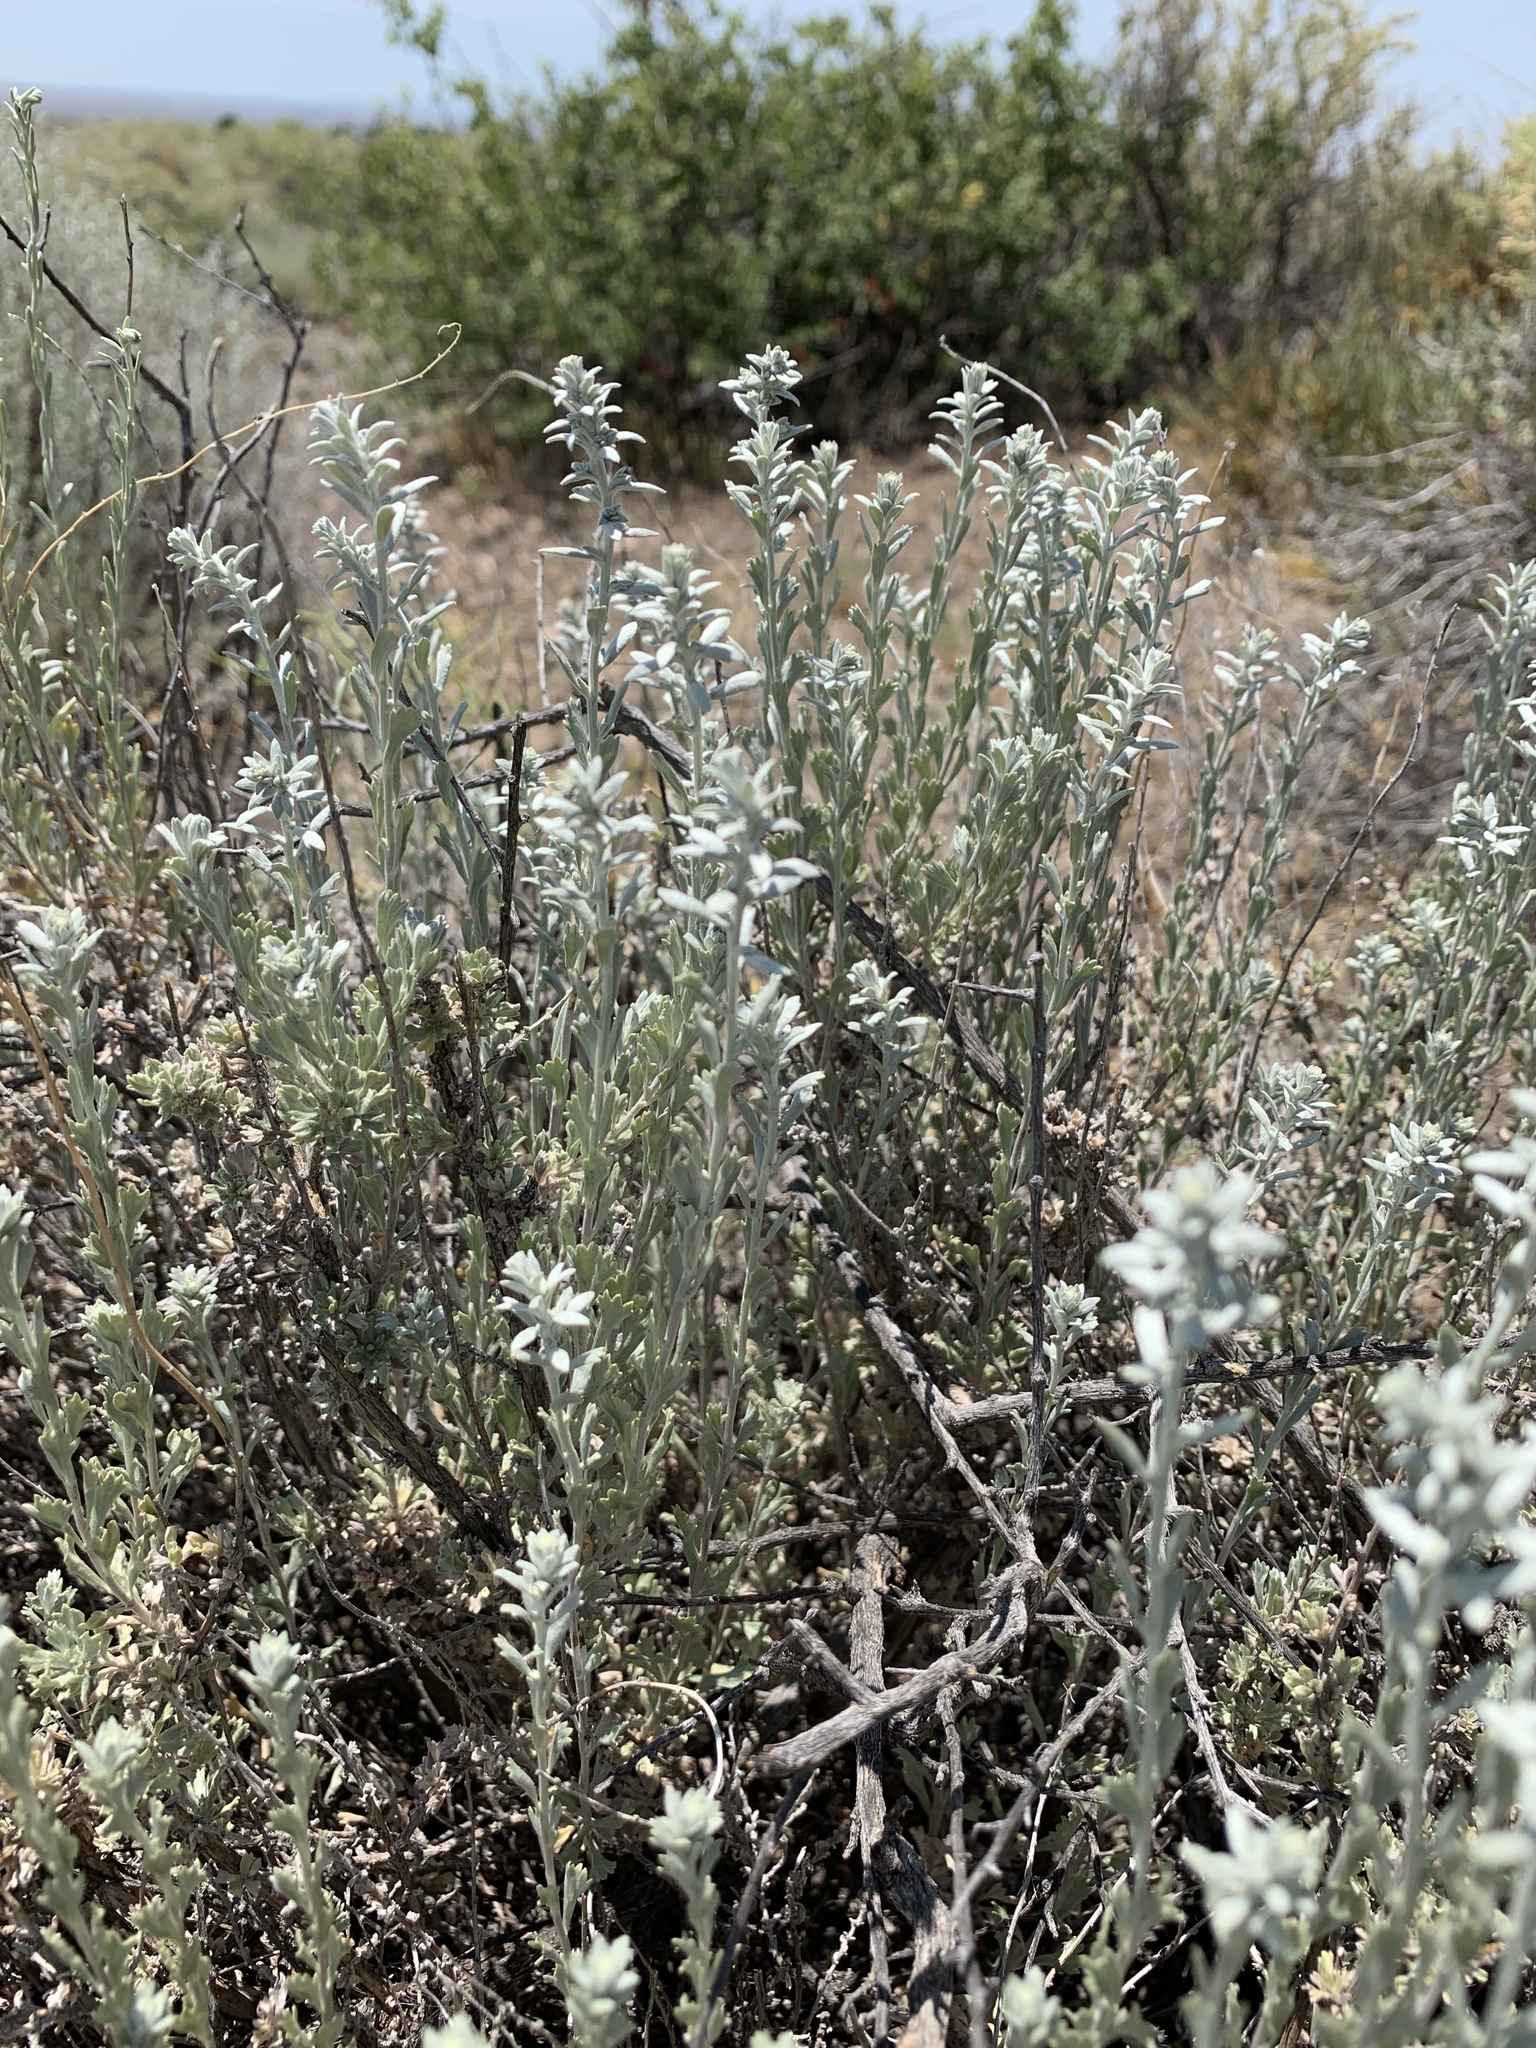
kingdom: Plantae
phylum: Tracheophyta
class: Magnoliopsida
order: Asterales
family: Asteraceae
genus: Artemisia
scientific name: Artemisia tridentata
